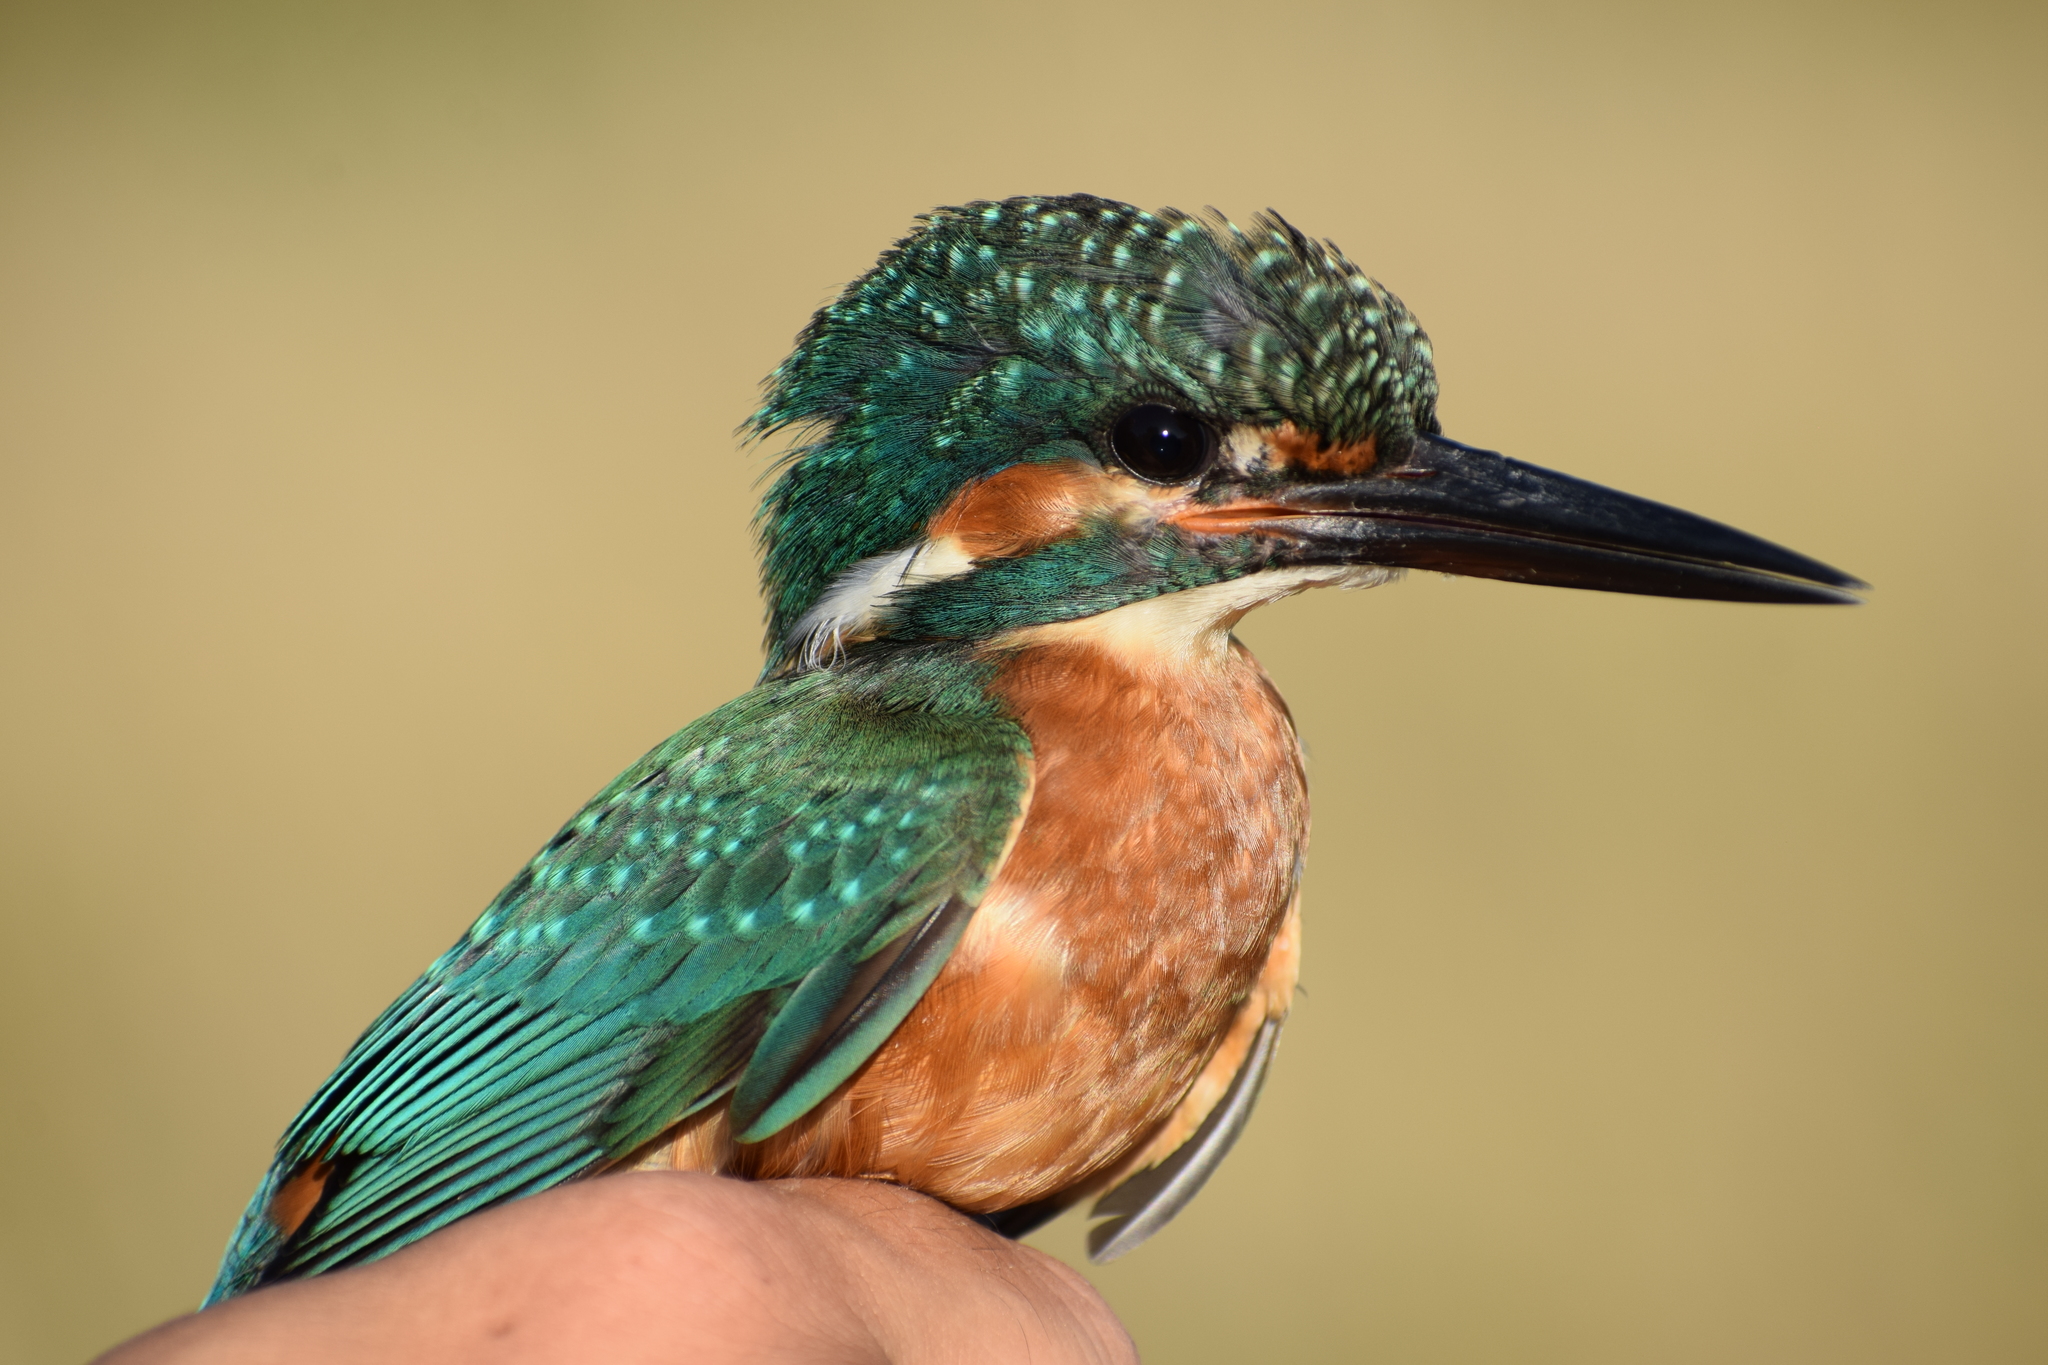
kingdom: Animalia
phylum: Chordata
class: Aves
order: Coraciiformes
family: Alcedinidae
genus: Alcedo
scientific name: Alcedo atthis
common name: Common kingfisher
